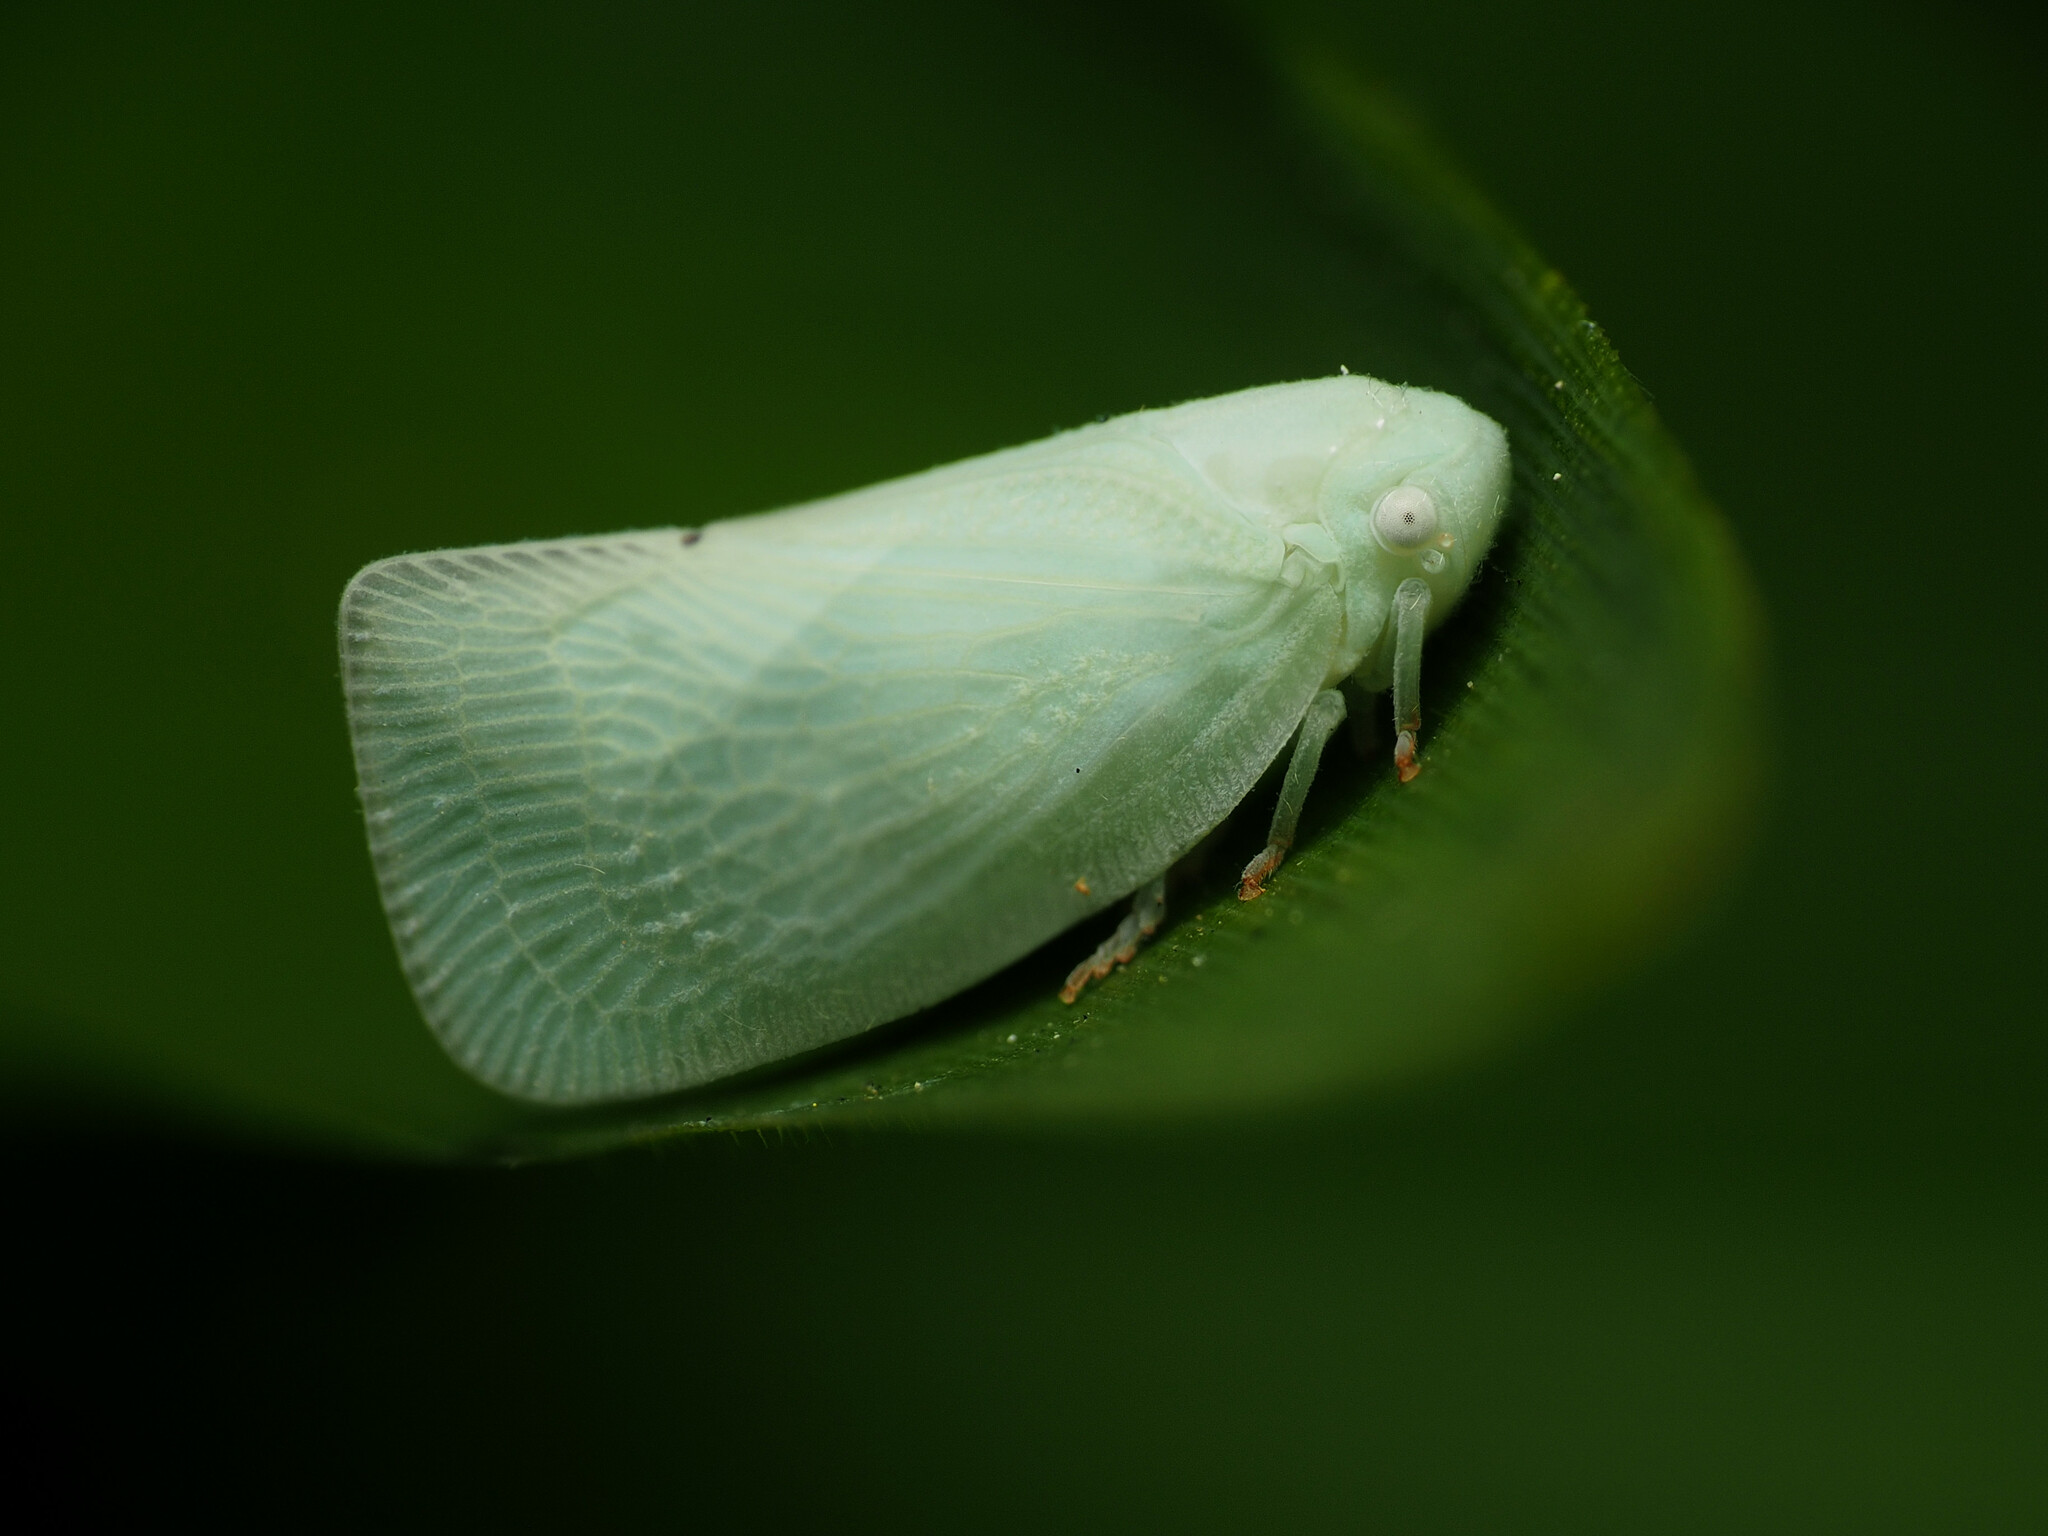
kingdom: Animalia
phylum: Arthropoda
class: Insecta
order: Hemiptera
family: Flatidae
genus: Flatormenis
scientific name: Flatormenis proxima
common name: Northern flatid planthopper
